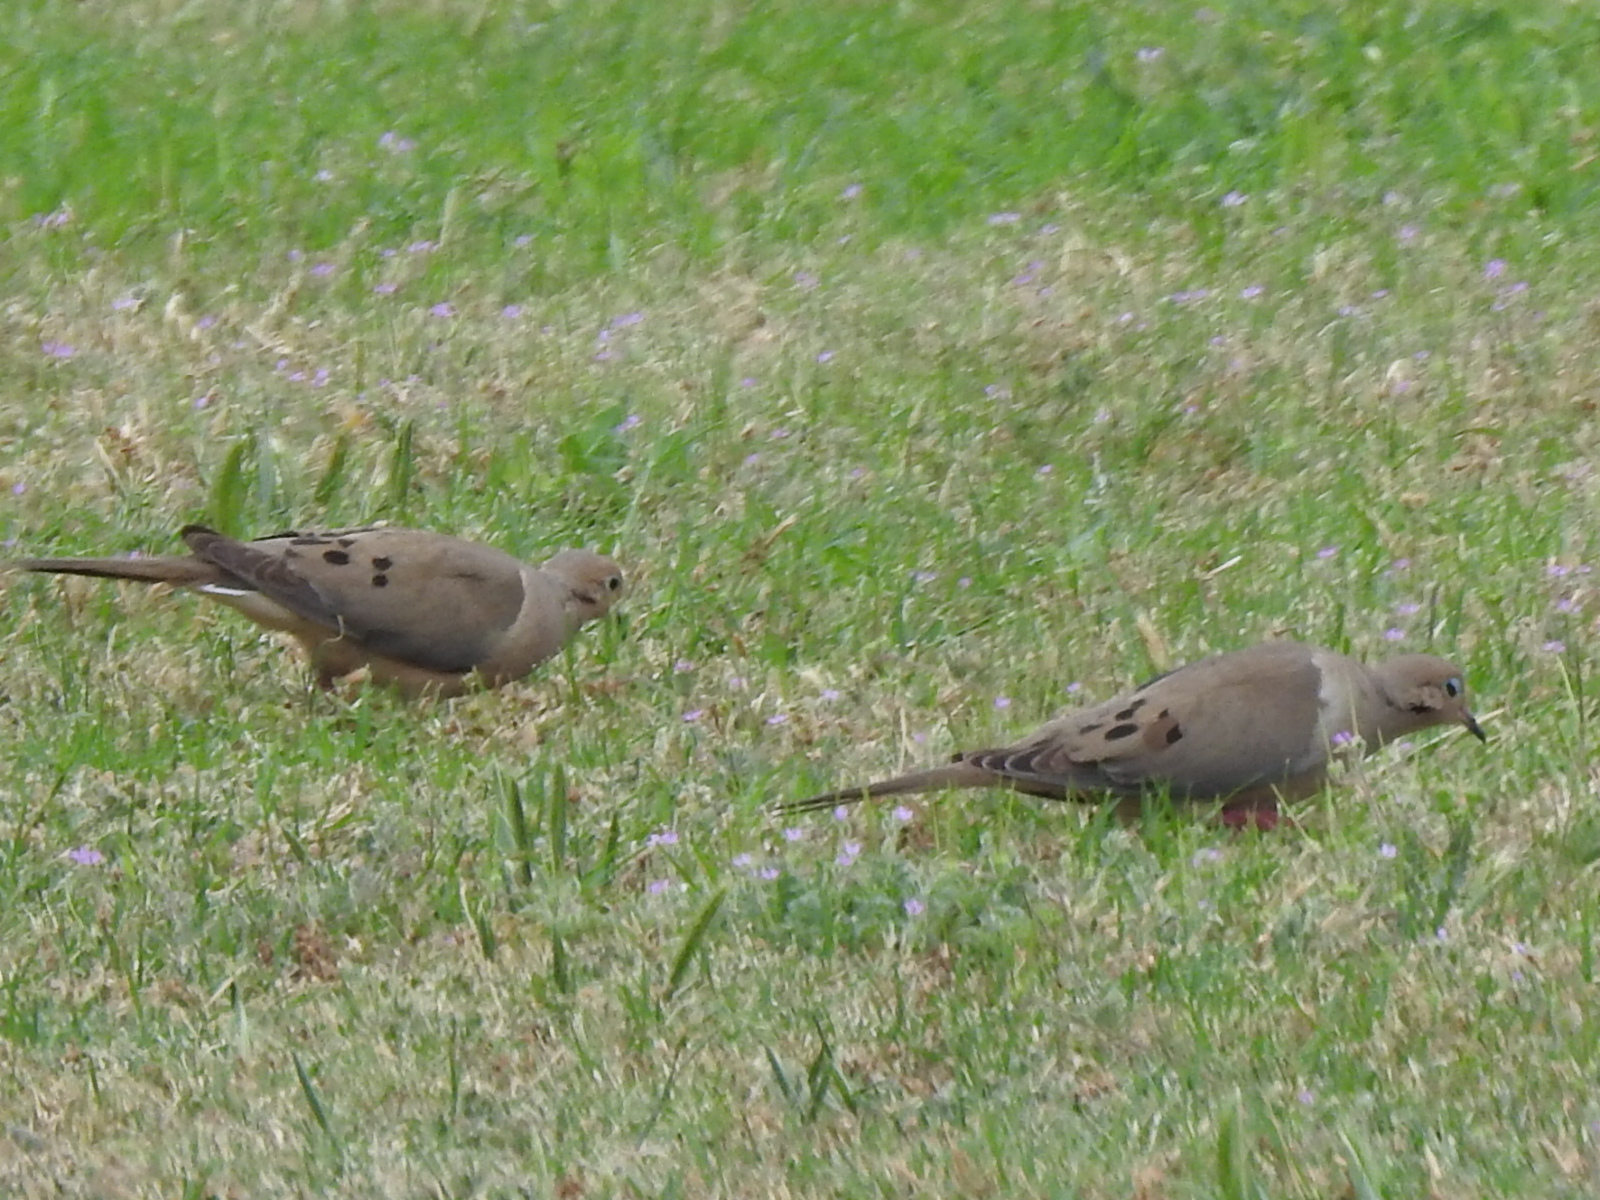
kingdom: Animalia
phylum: Chordata
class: Aves
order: Columbiformes
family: Columbidae
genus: Zenaida
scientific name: Zenaida macroura
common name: Mourning dove
